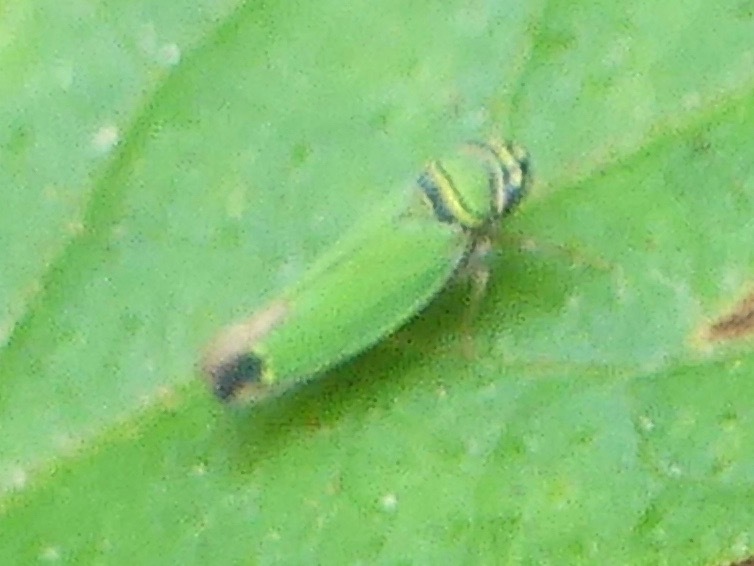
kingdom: Animalia
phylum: Arthropoda
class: Insecta
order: Hemiptera
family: Cicadellidae
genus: Tylozygus
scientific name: Tylozygus geometricus
